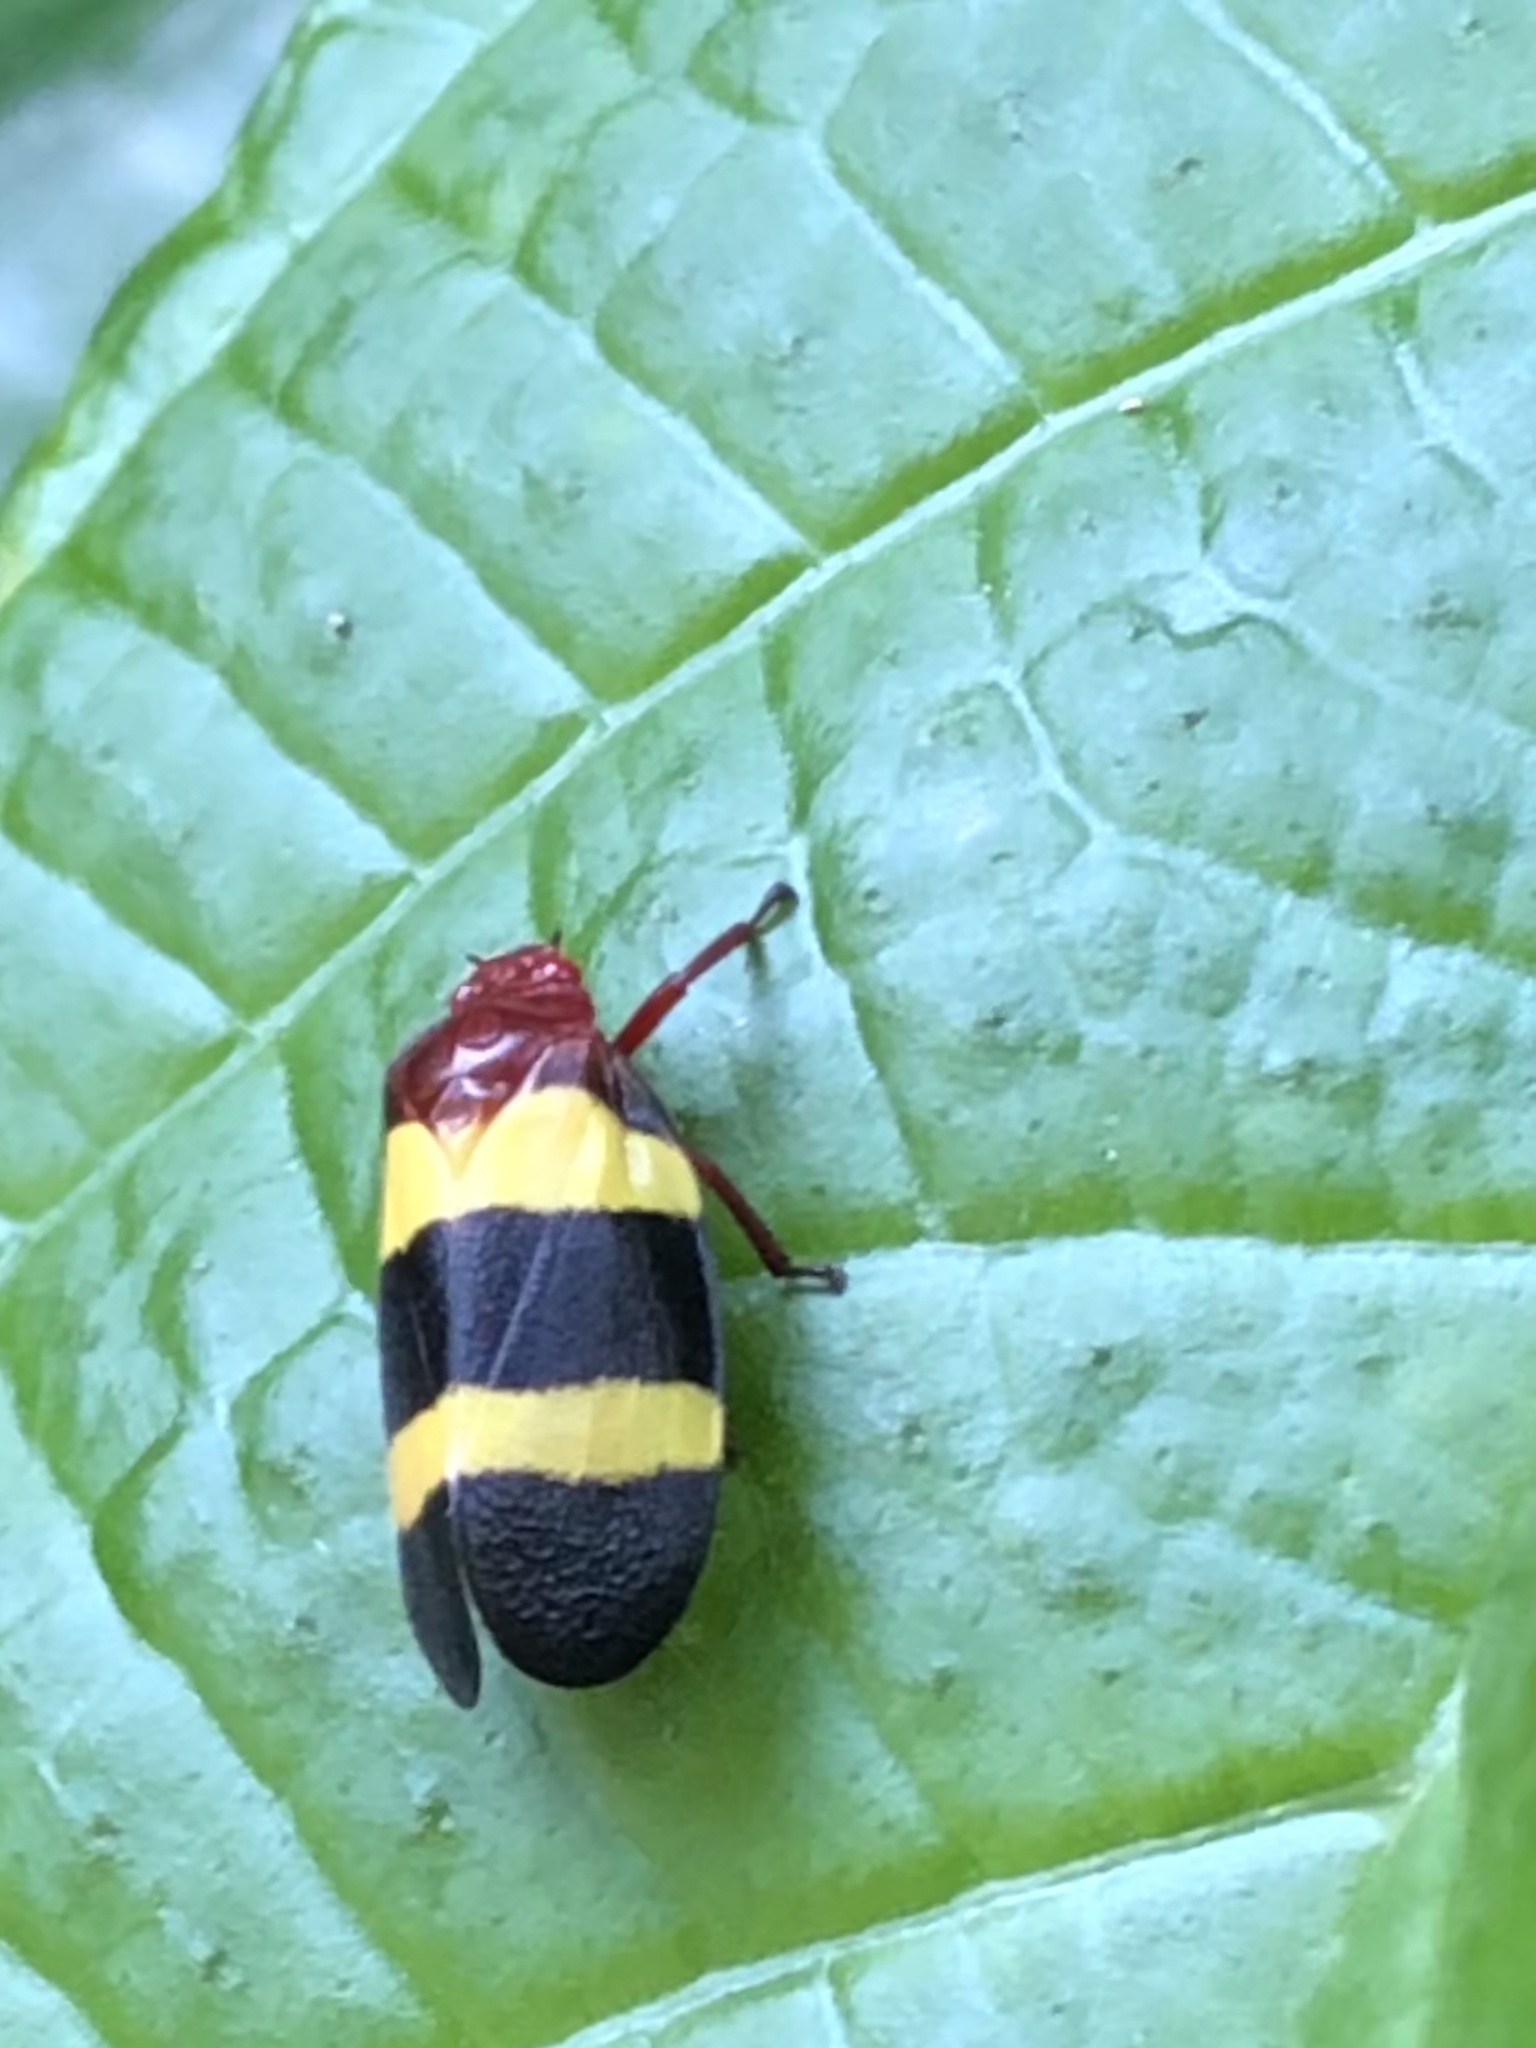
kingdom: Animalia
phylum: Arthropoda
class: Insecta
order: Hemiptera
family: Cercopidae
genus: Sphenorhina
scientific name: Sphenorhina rubra
